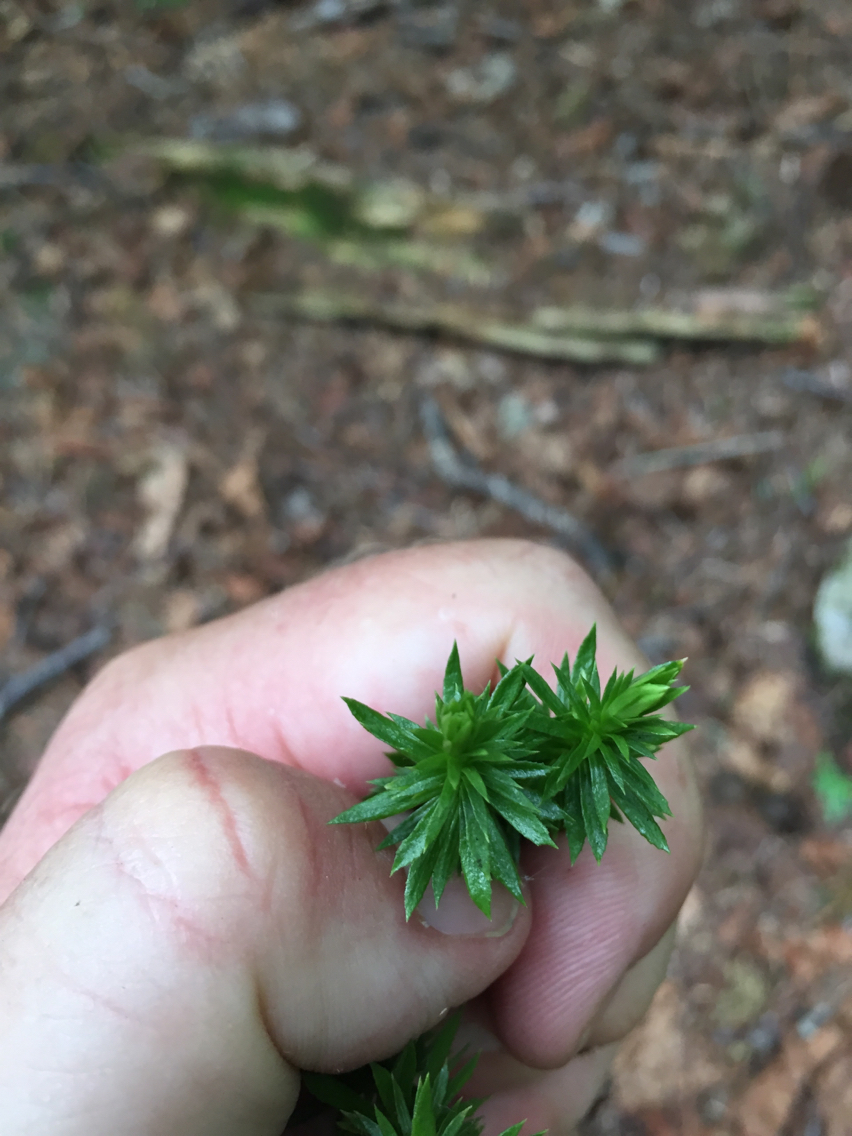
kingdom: Plantae
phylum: Tracheophyta
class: Lycopodiopsida
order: Lycopodiales
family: Lycopodiaceae
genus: Spinulum
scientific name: Spinulum annotinum
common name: Interrupted club-moss
